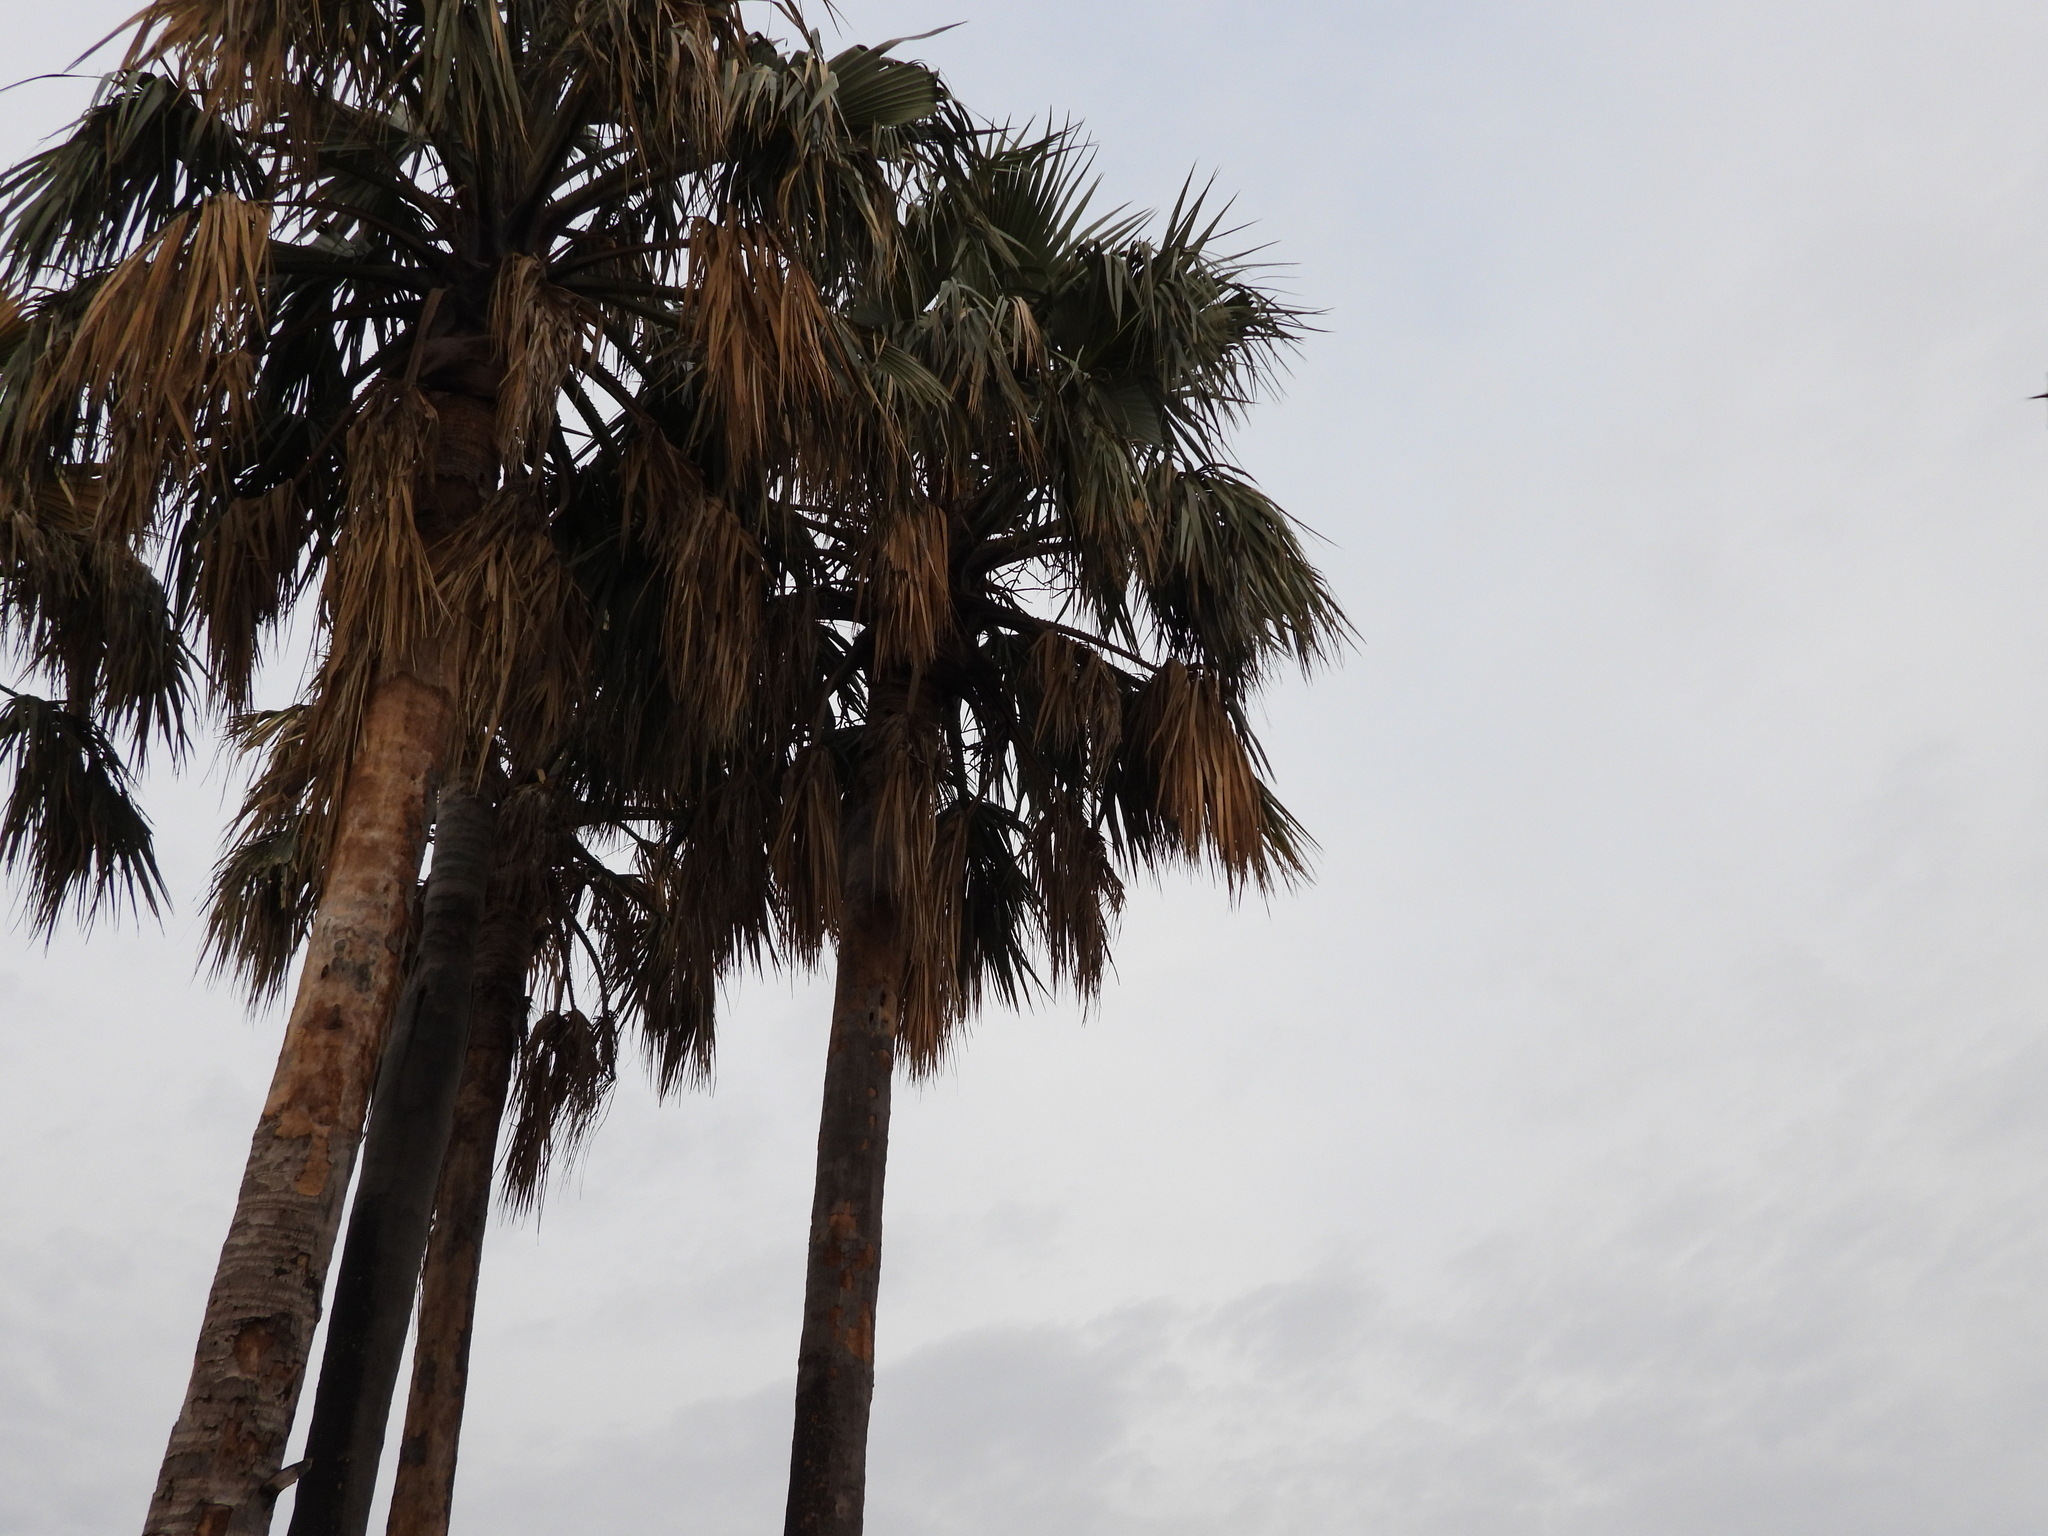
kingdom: Animalia
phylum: Chordata
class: Aves
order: Apodiformes
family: Apodidae
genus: Cypsiurus
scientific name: Cypsiurus parvus
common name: African palm swift
